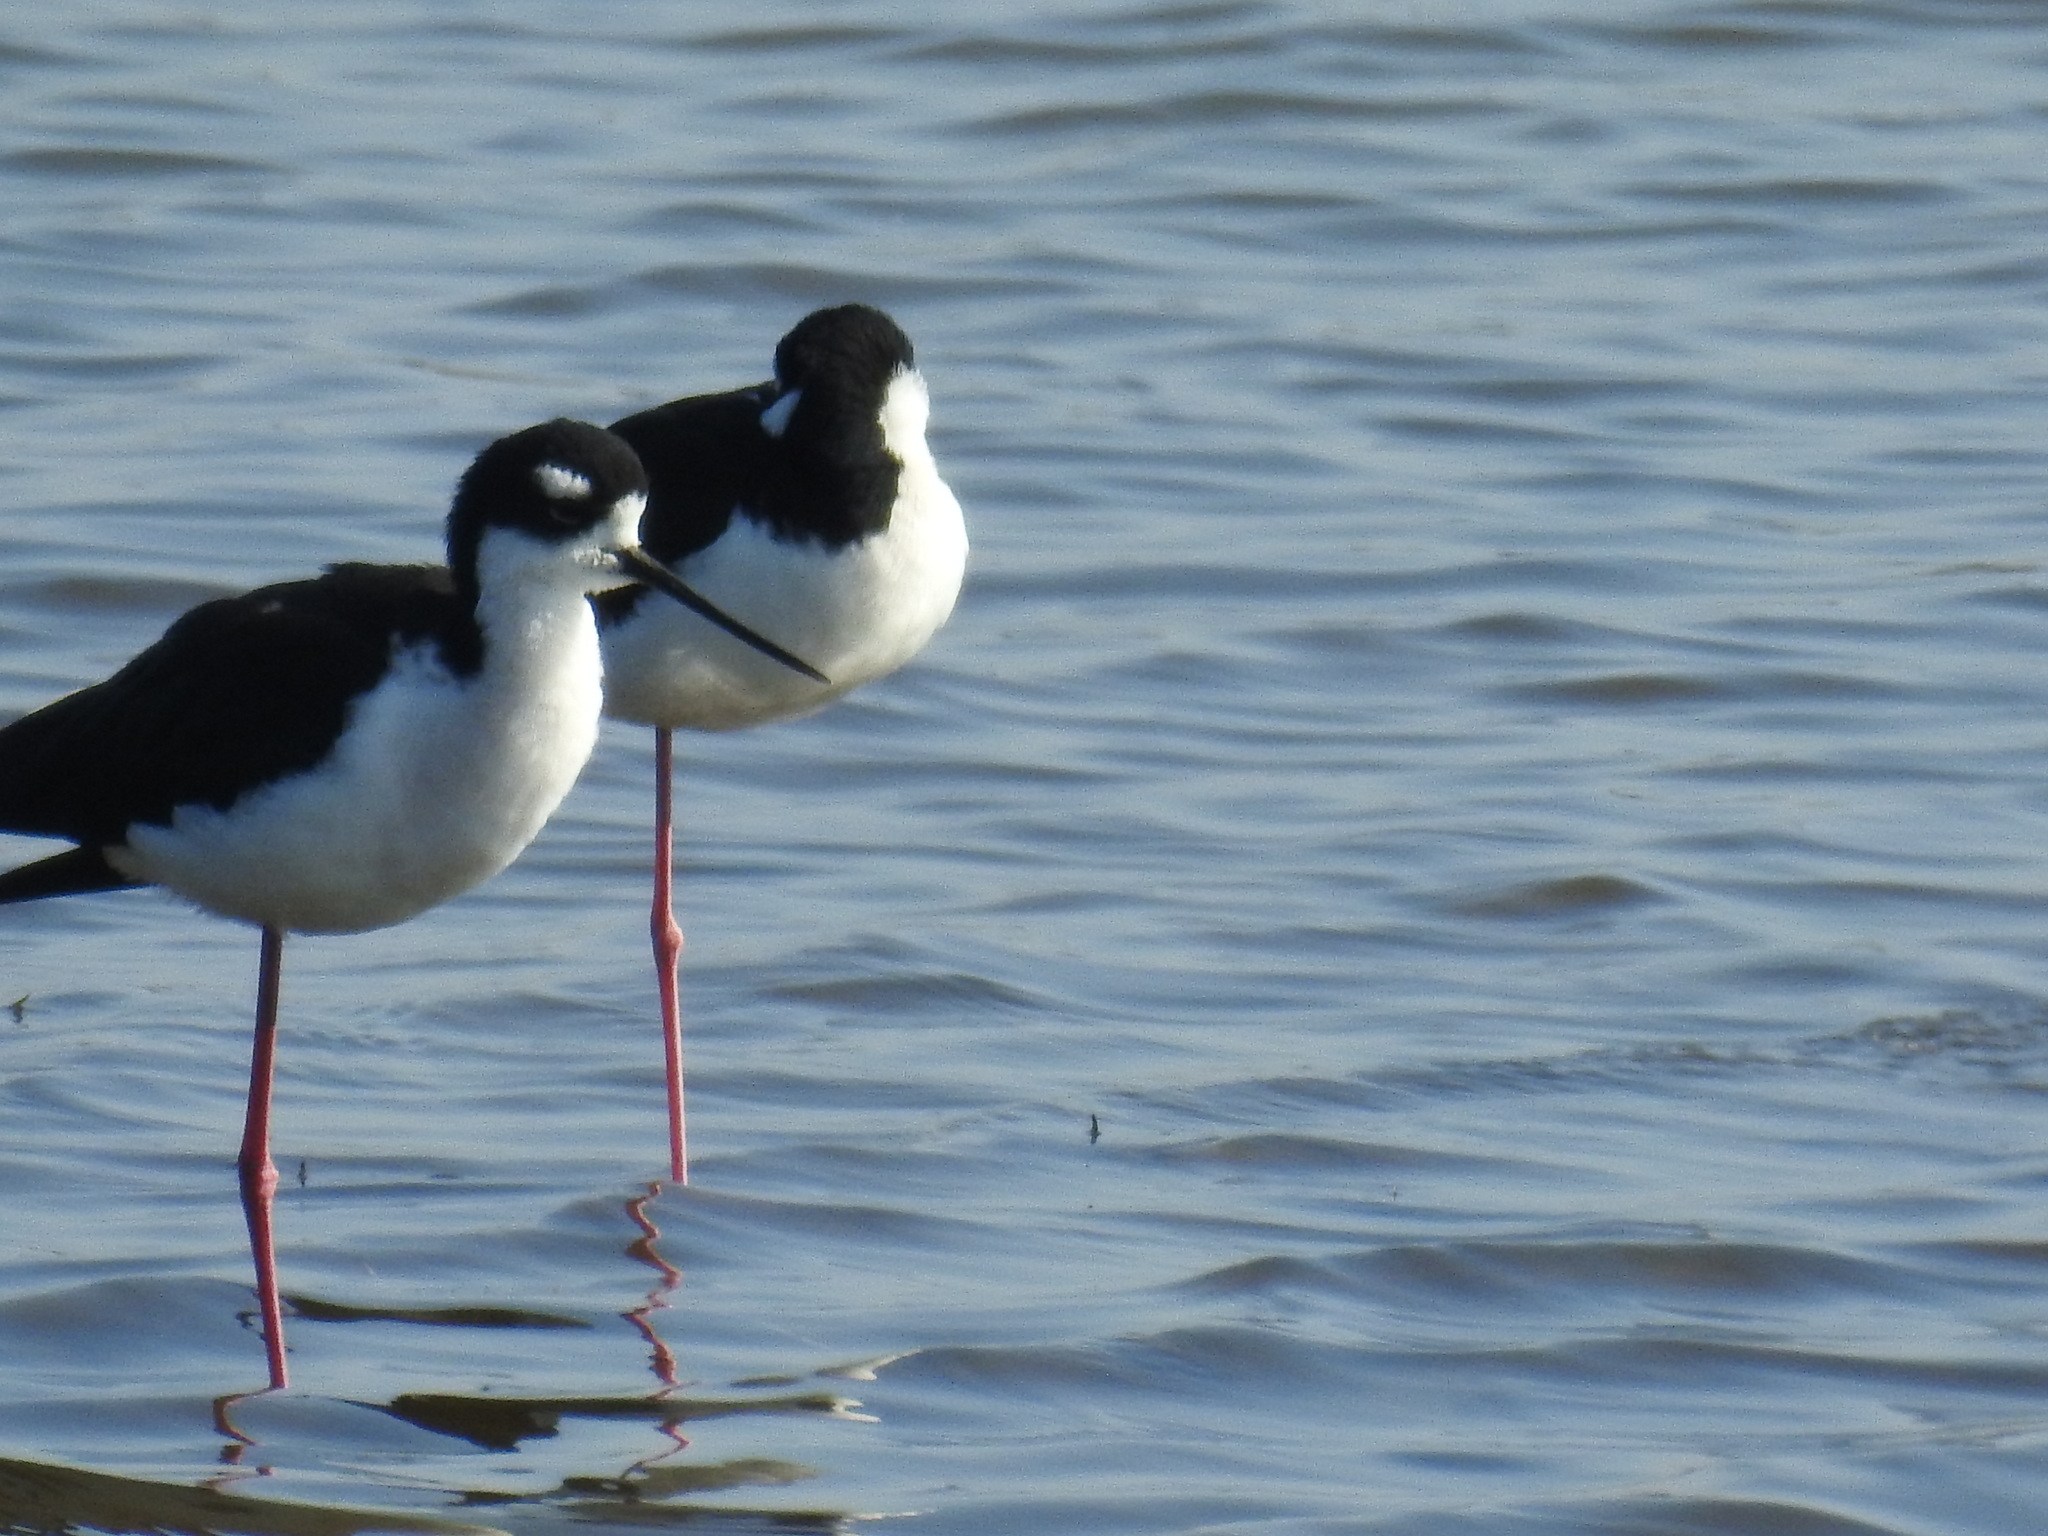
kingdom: Animalia
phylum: Chordata
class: Aves
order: Charadriiformes
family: Recurvirostridae
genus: Himantopus
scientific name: Himantopus mexicanus
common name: Black-necked stilt
